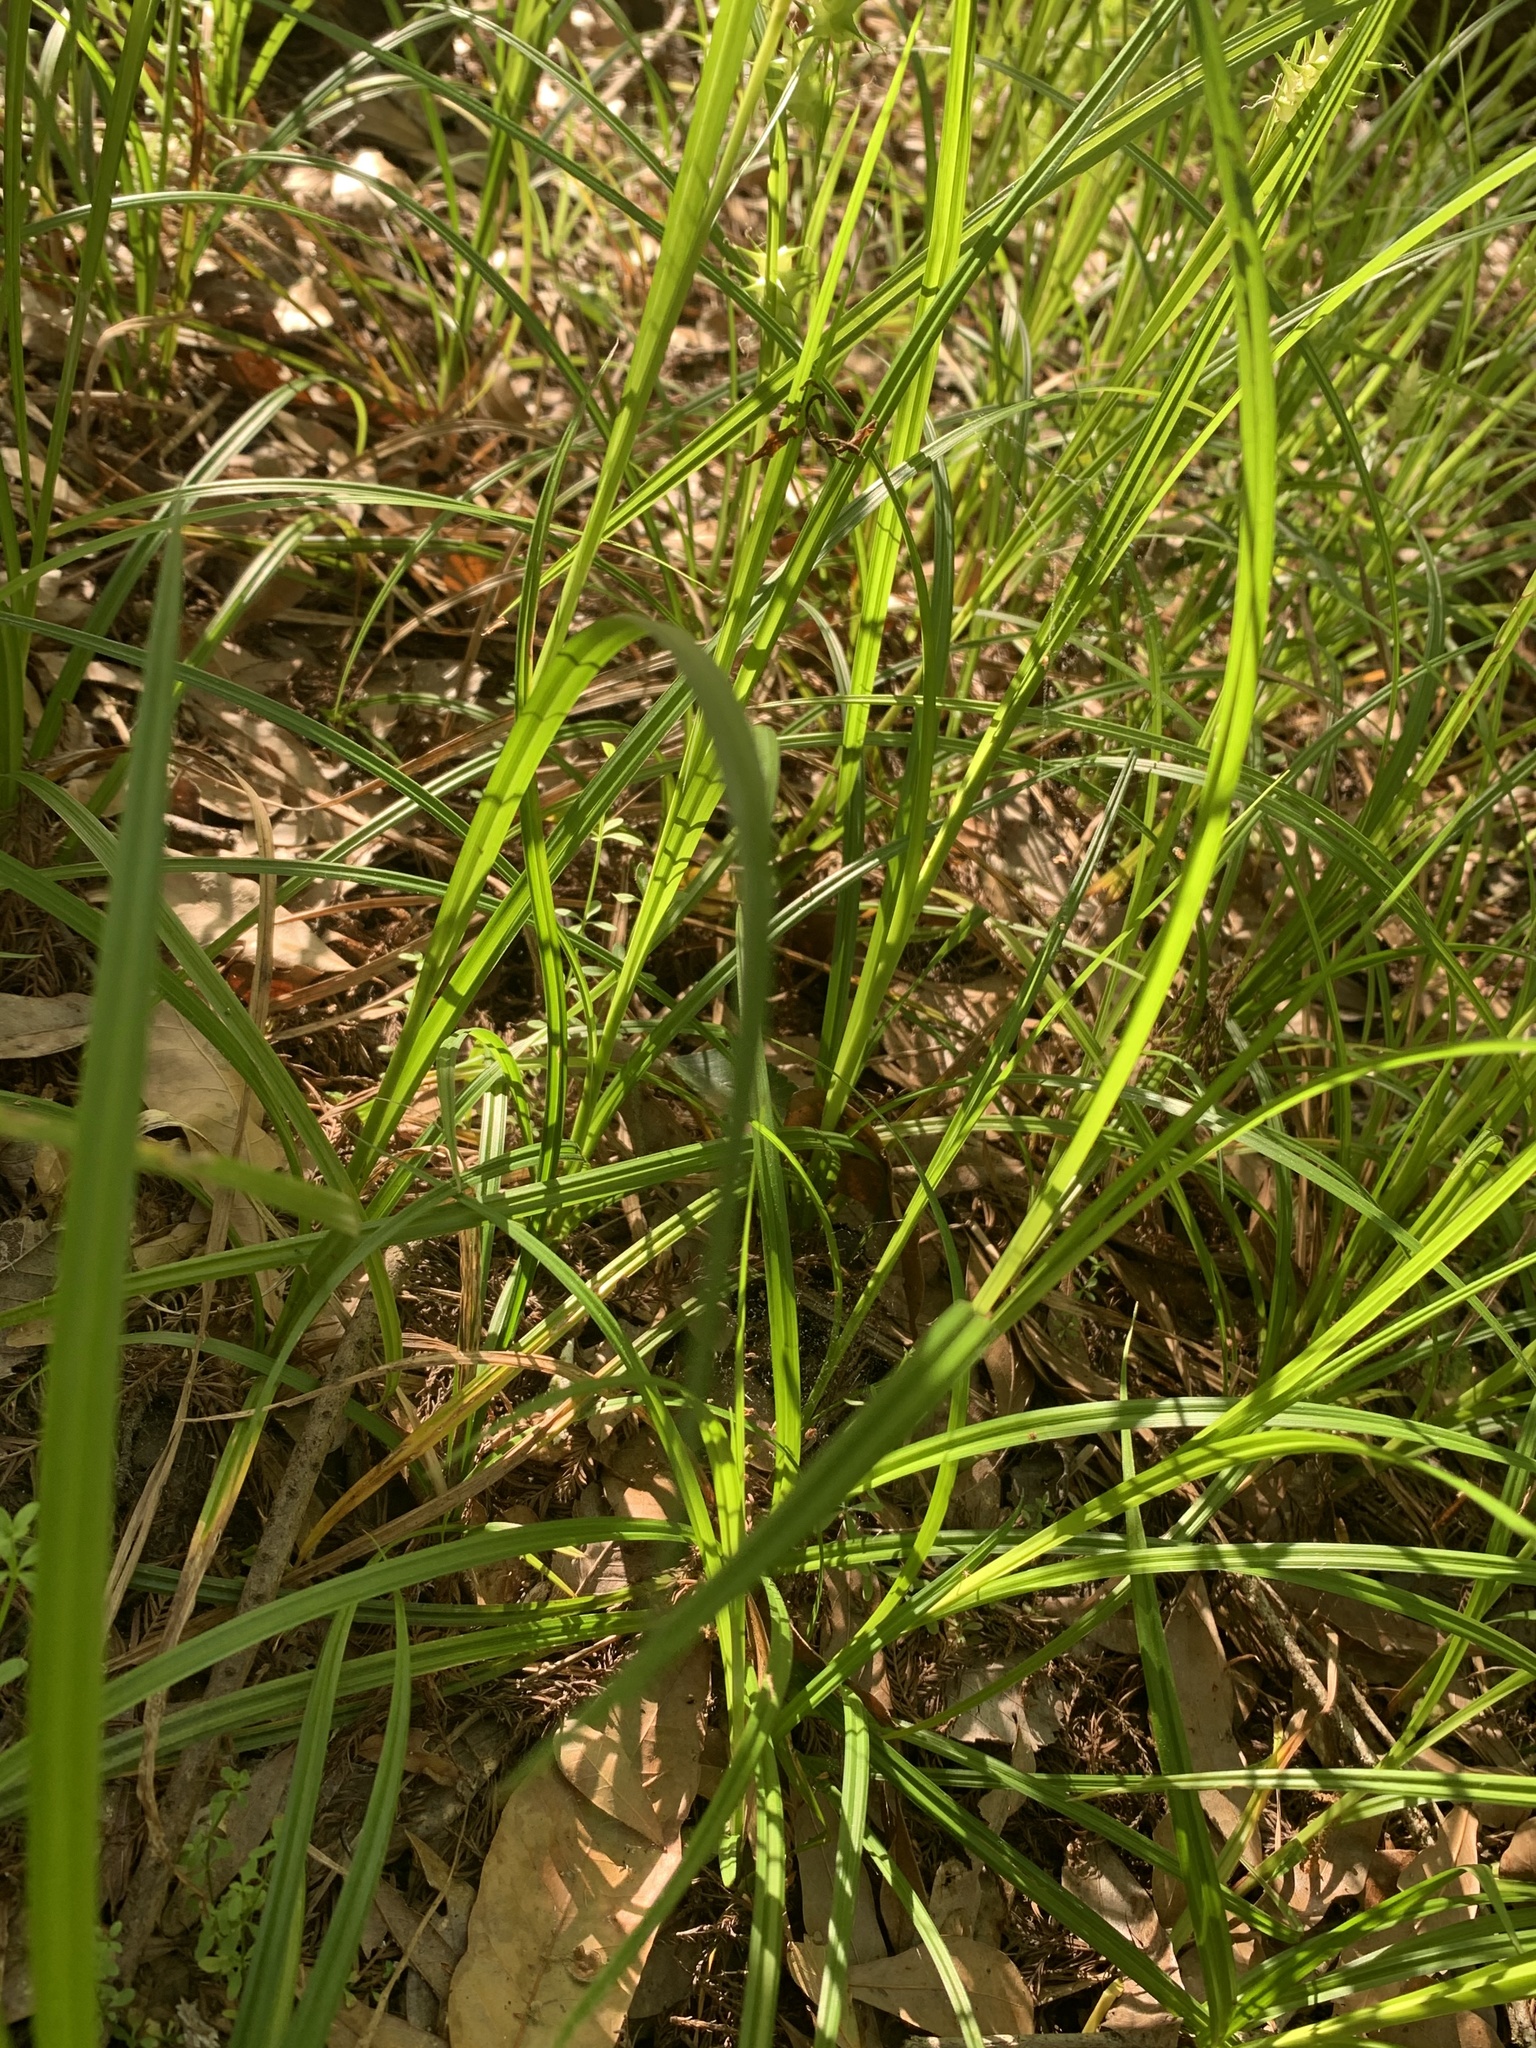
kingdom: Plantae
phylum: Tracheophyta
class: Liliopsida
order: Poales
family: Cyperaceae
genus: Carex
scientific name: Carex gigantea
